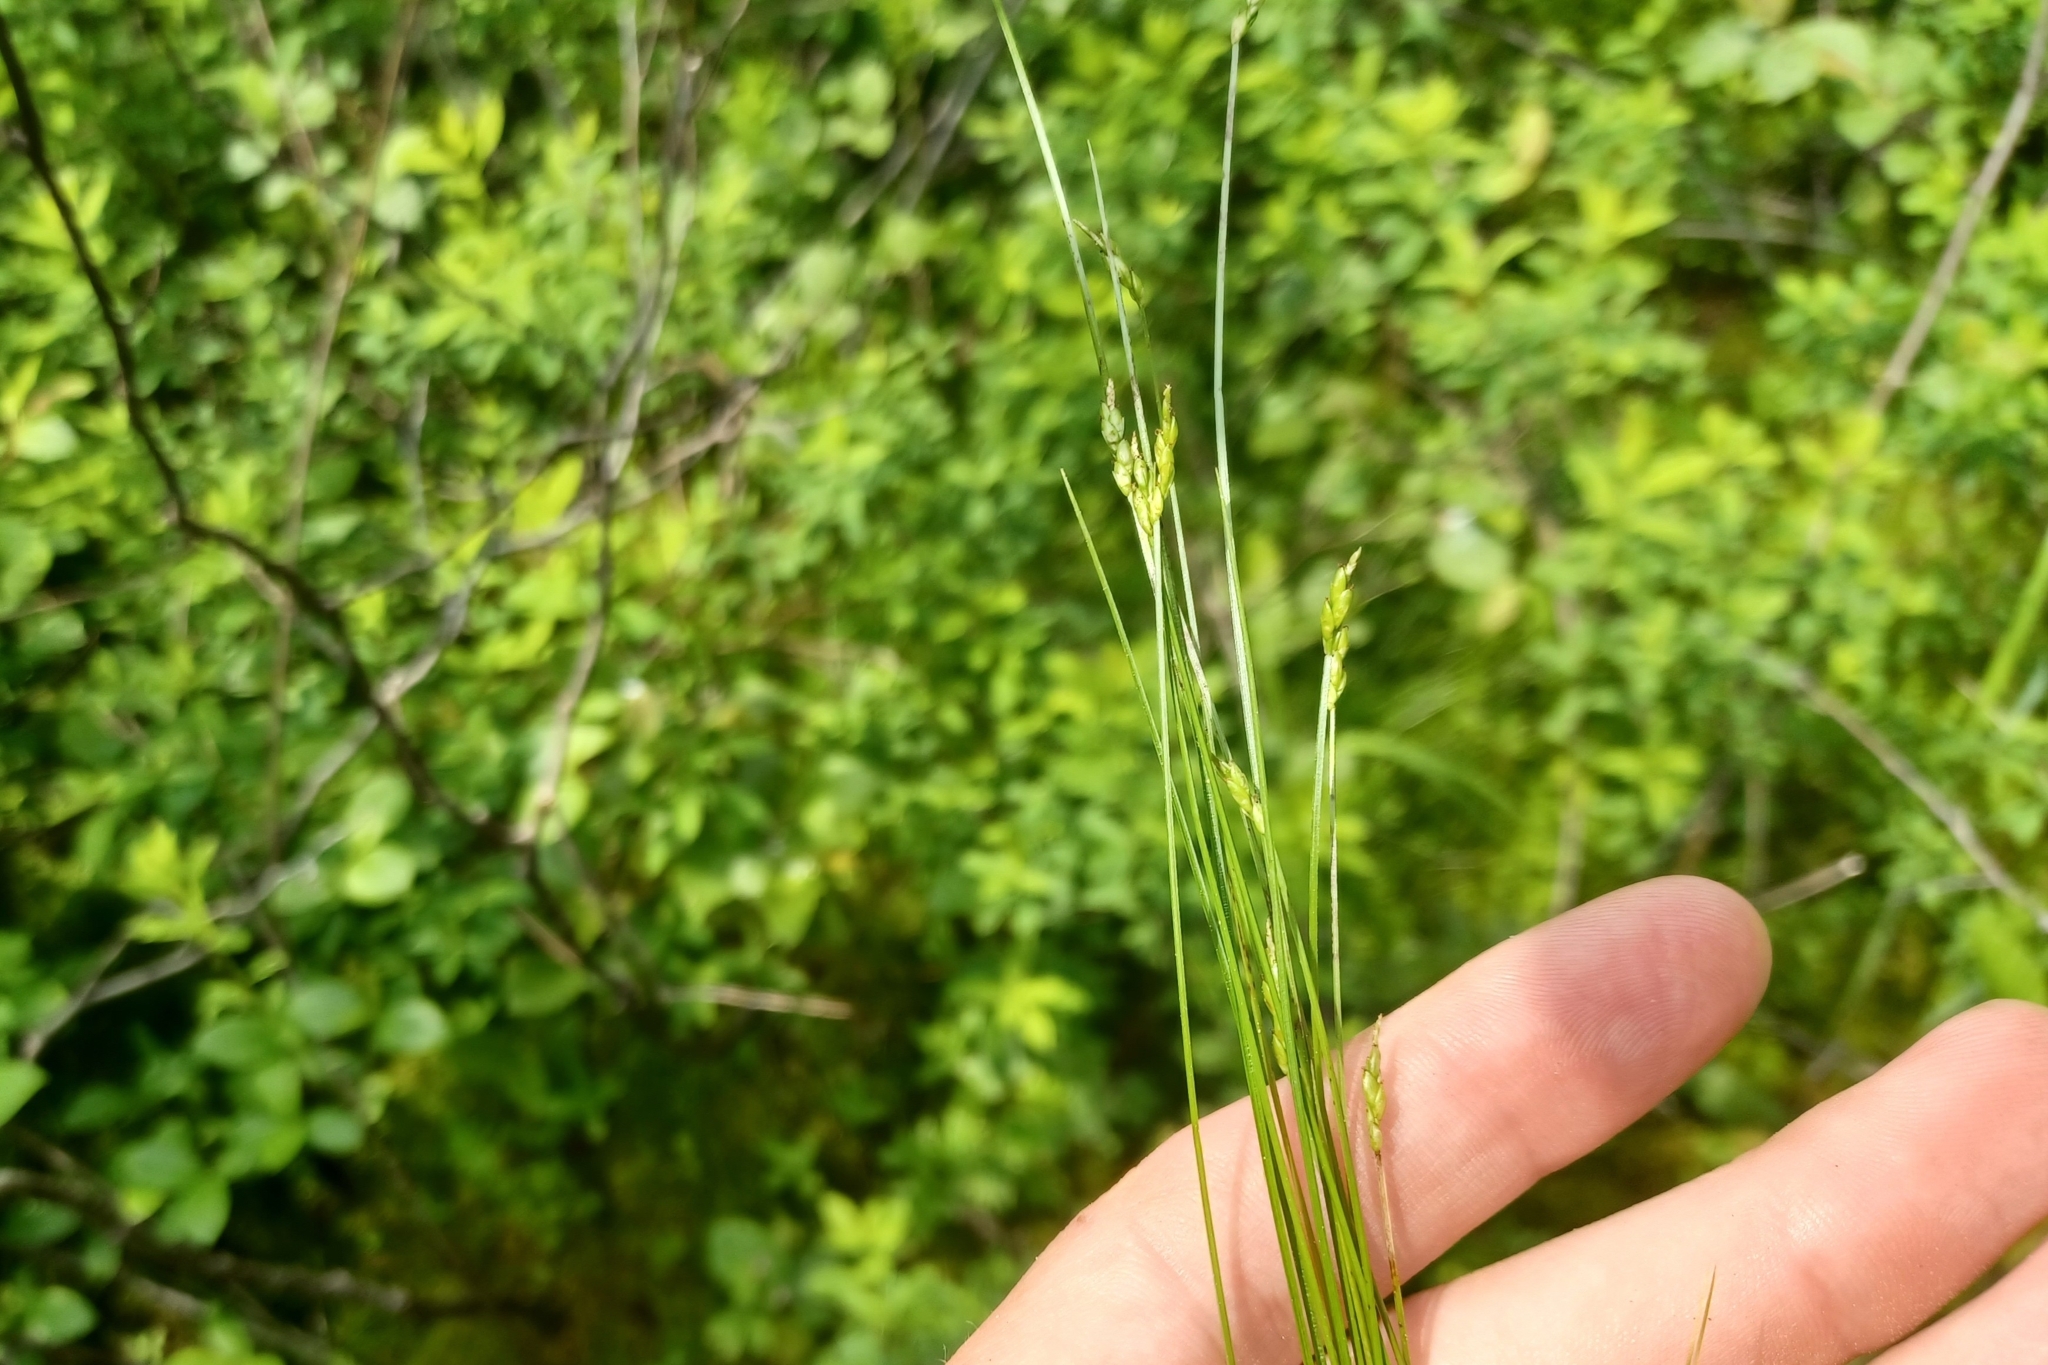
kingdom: Plantae
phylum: Tracheophyta
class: Liliopsida
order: Poales
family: Cyperaceae
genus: Carex
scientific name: Carex leptalea
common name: Bristly-stalked sedge
